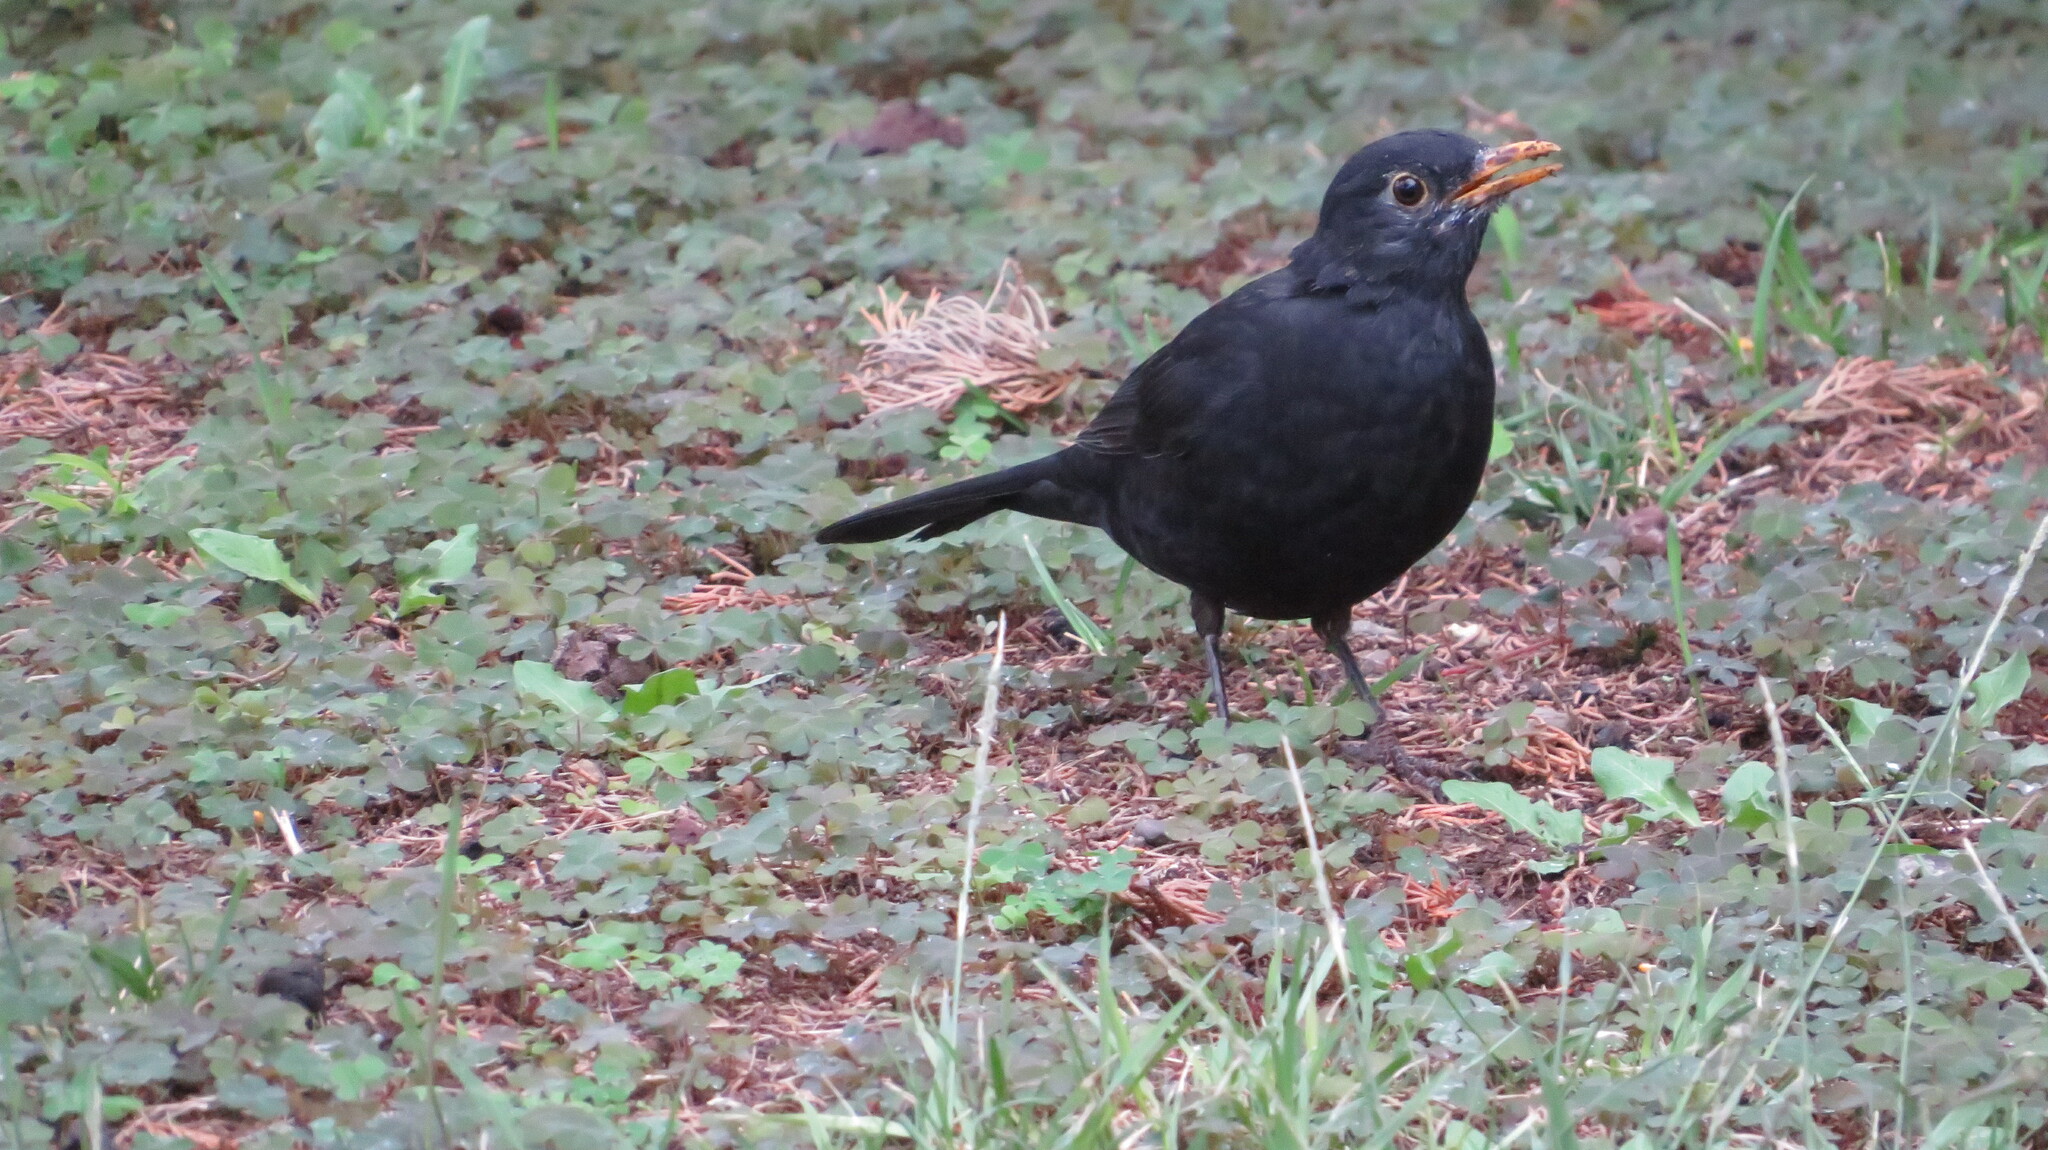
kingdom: Animalia
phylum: Chordata
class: Aves
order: Passeriformes
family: Turdidae
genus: Turdus
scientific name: Turdus merula
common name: Common blackbird
